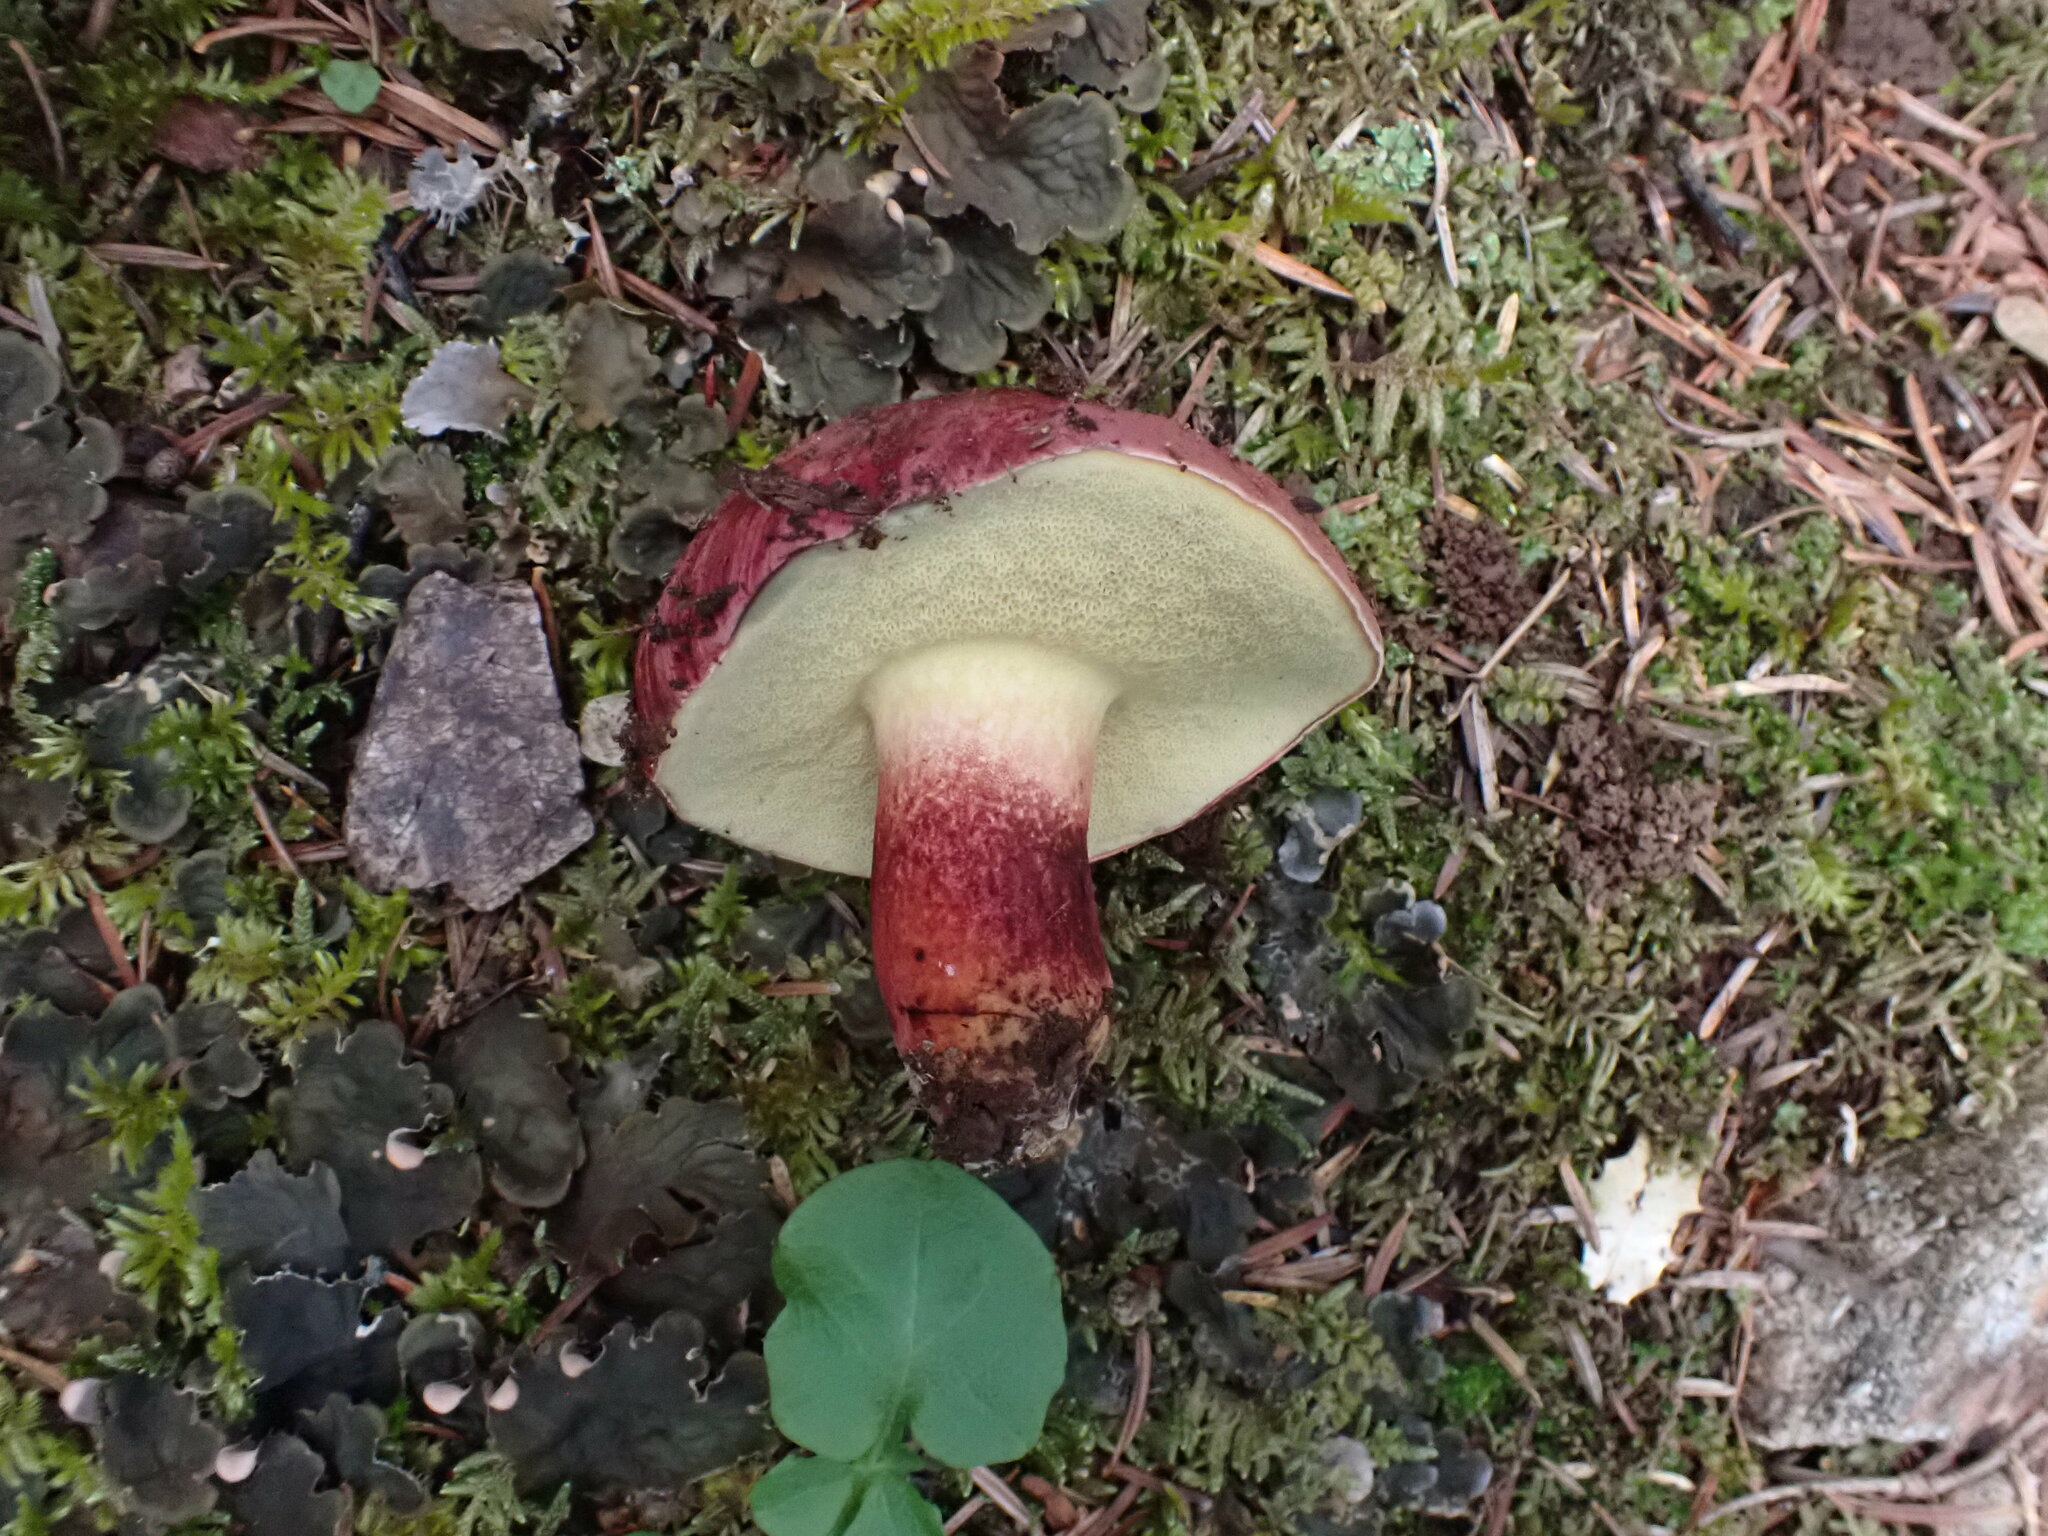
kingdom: Fungi
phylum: Basidiomycota
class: Agaricomycetes
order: Boletales
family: Boletaceae
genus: Baorangia
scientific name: Baorangia emileorum
